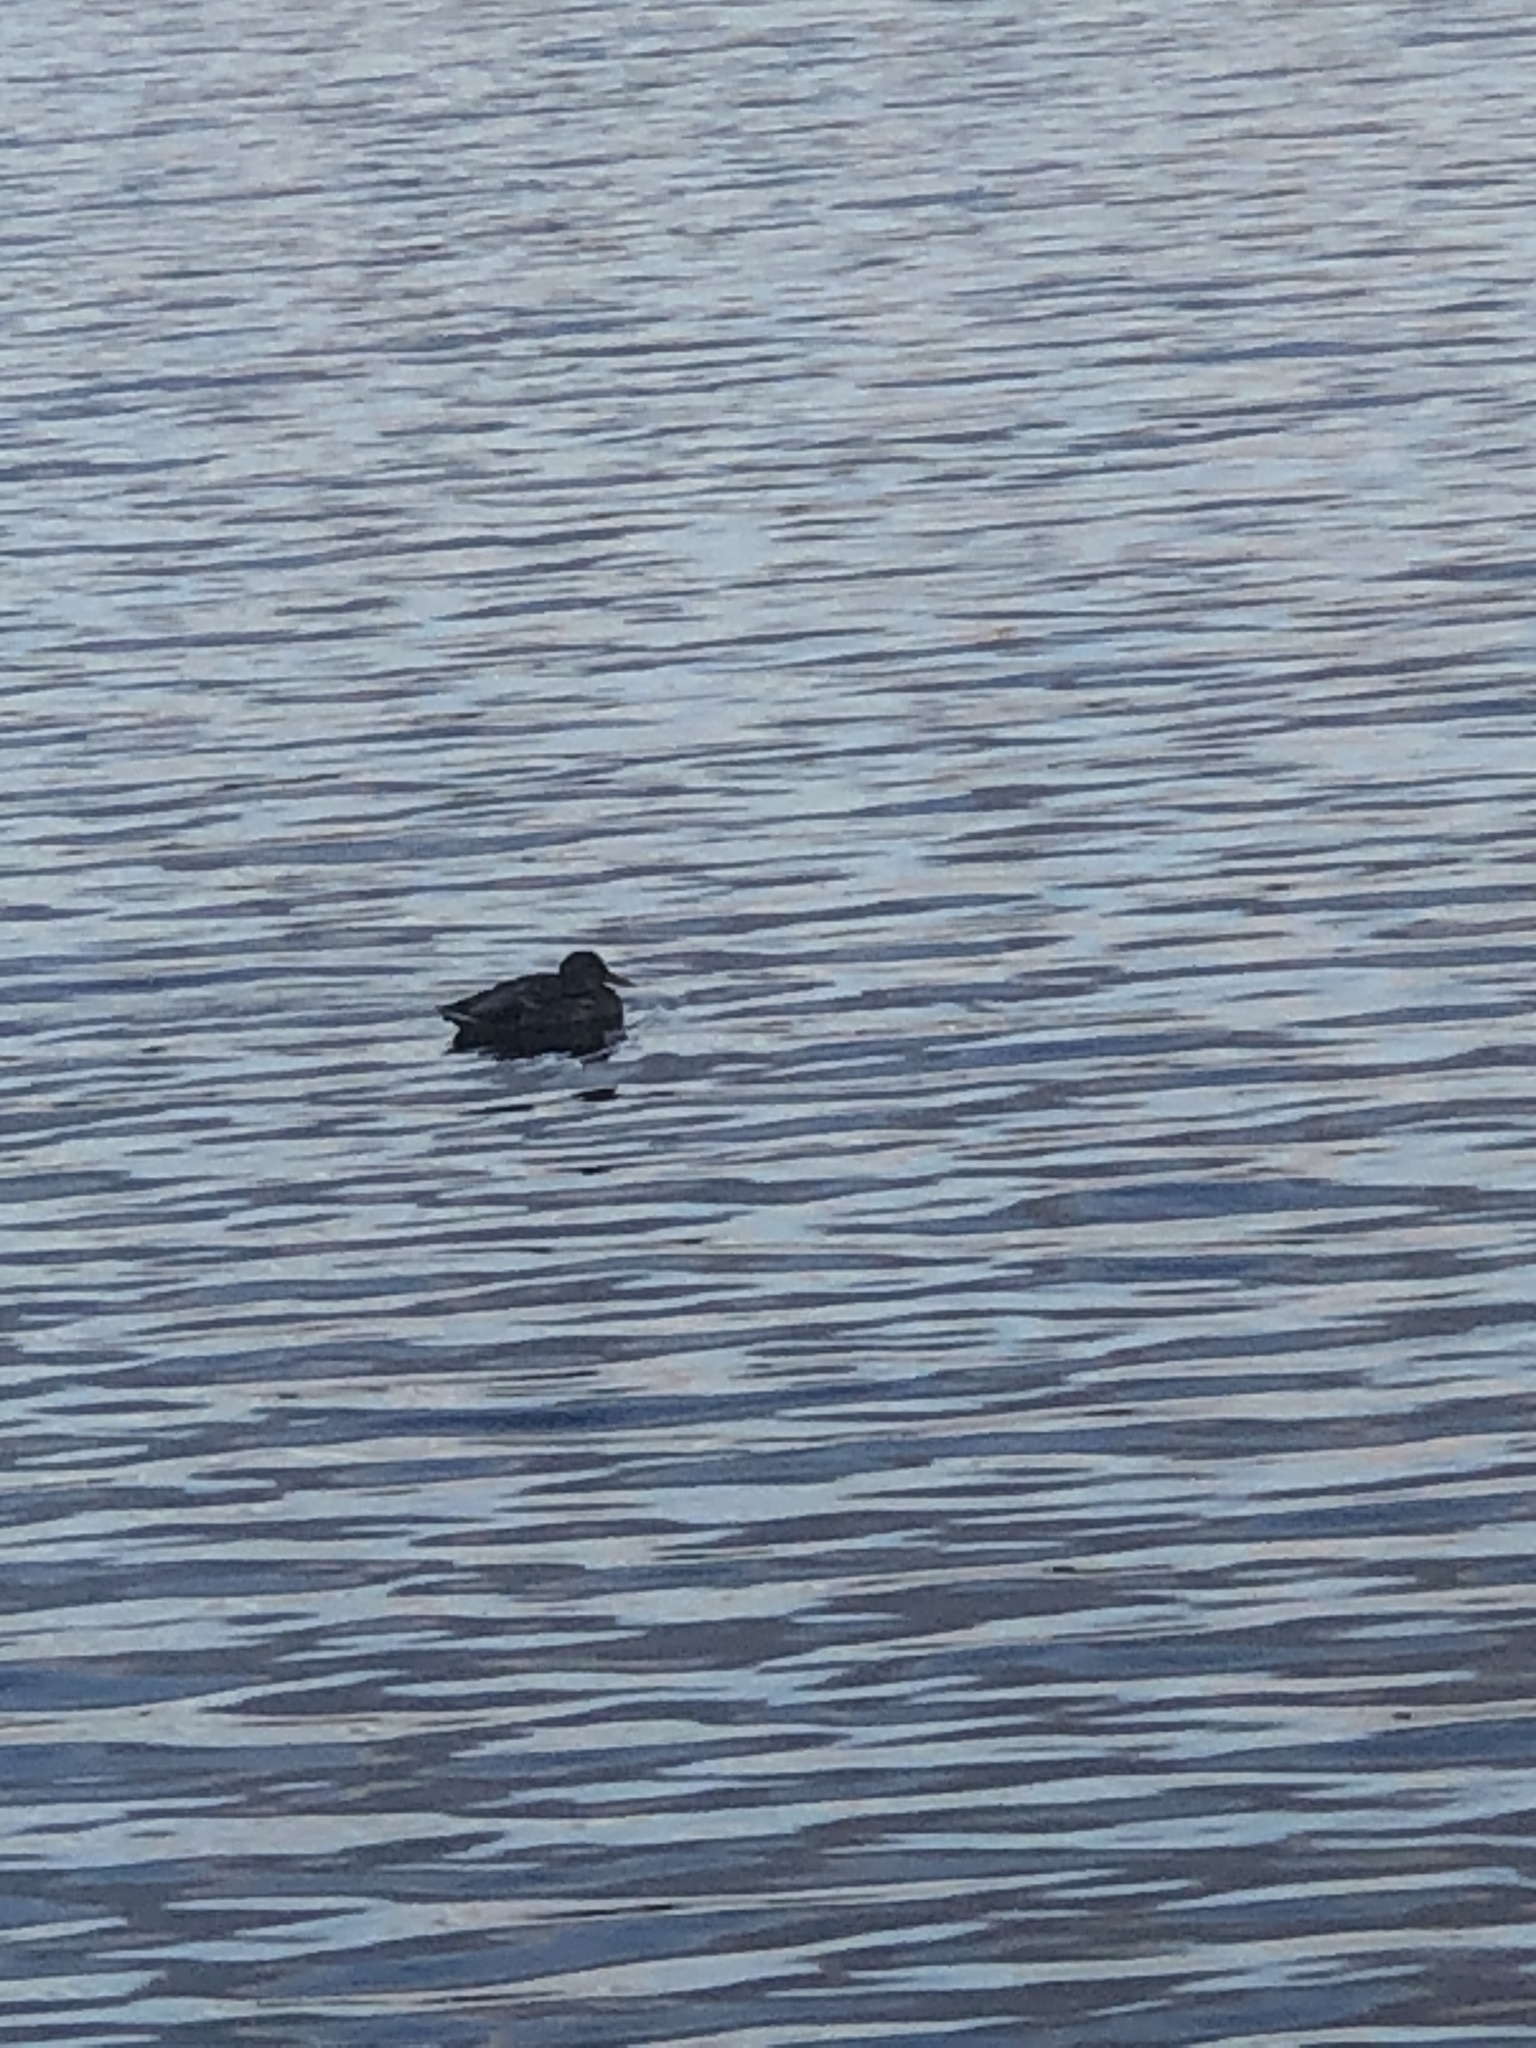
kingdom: Animalia
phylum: Chordata
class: Aves
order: Anseriformes
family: Anatidae
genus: Anas
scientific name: Anas platyrhynchos
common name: Mallard
